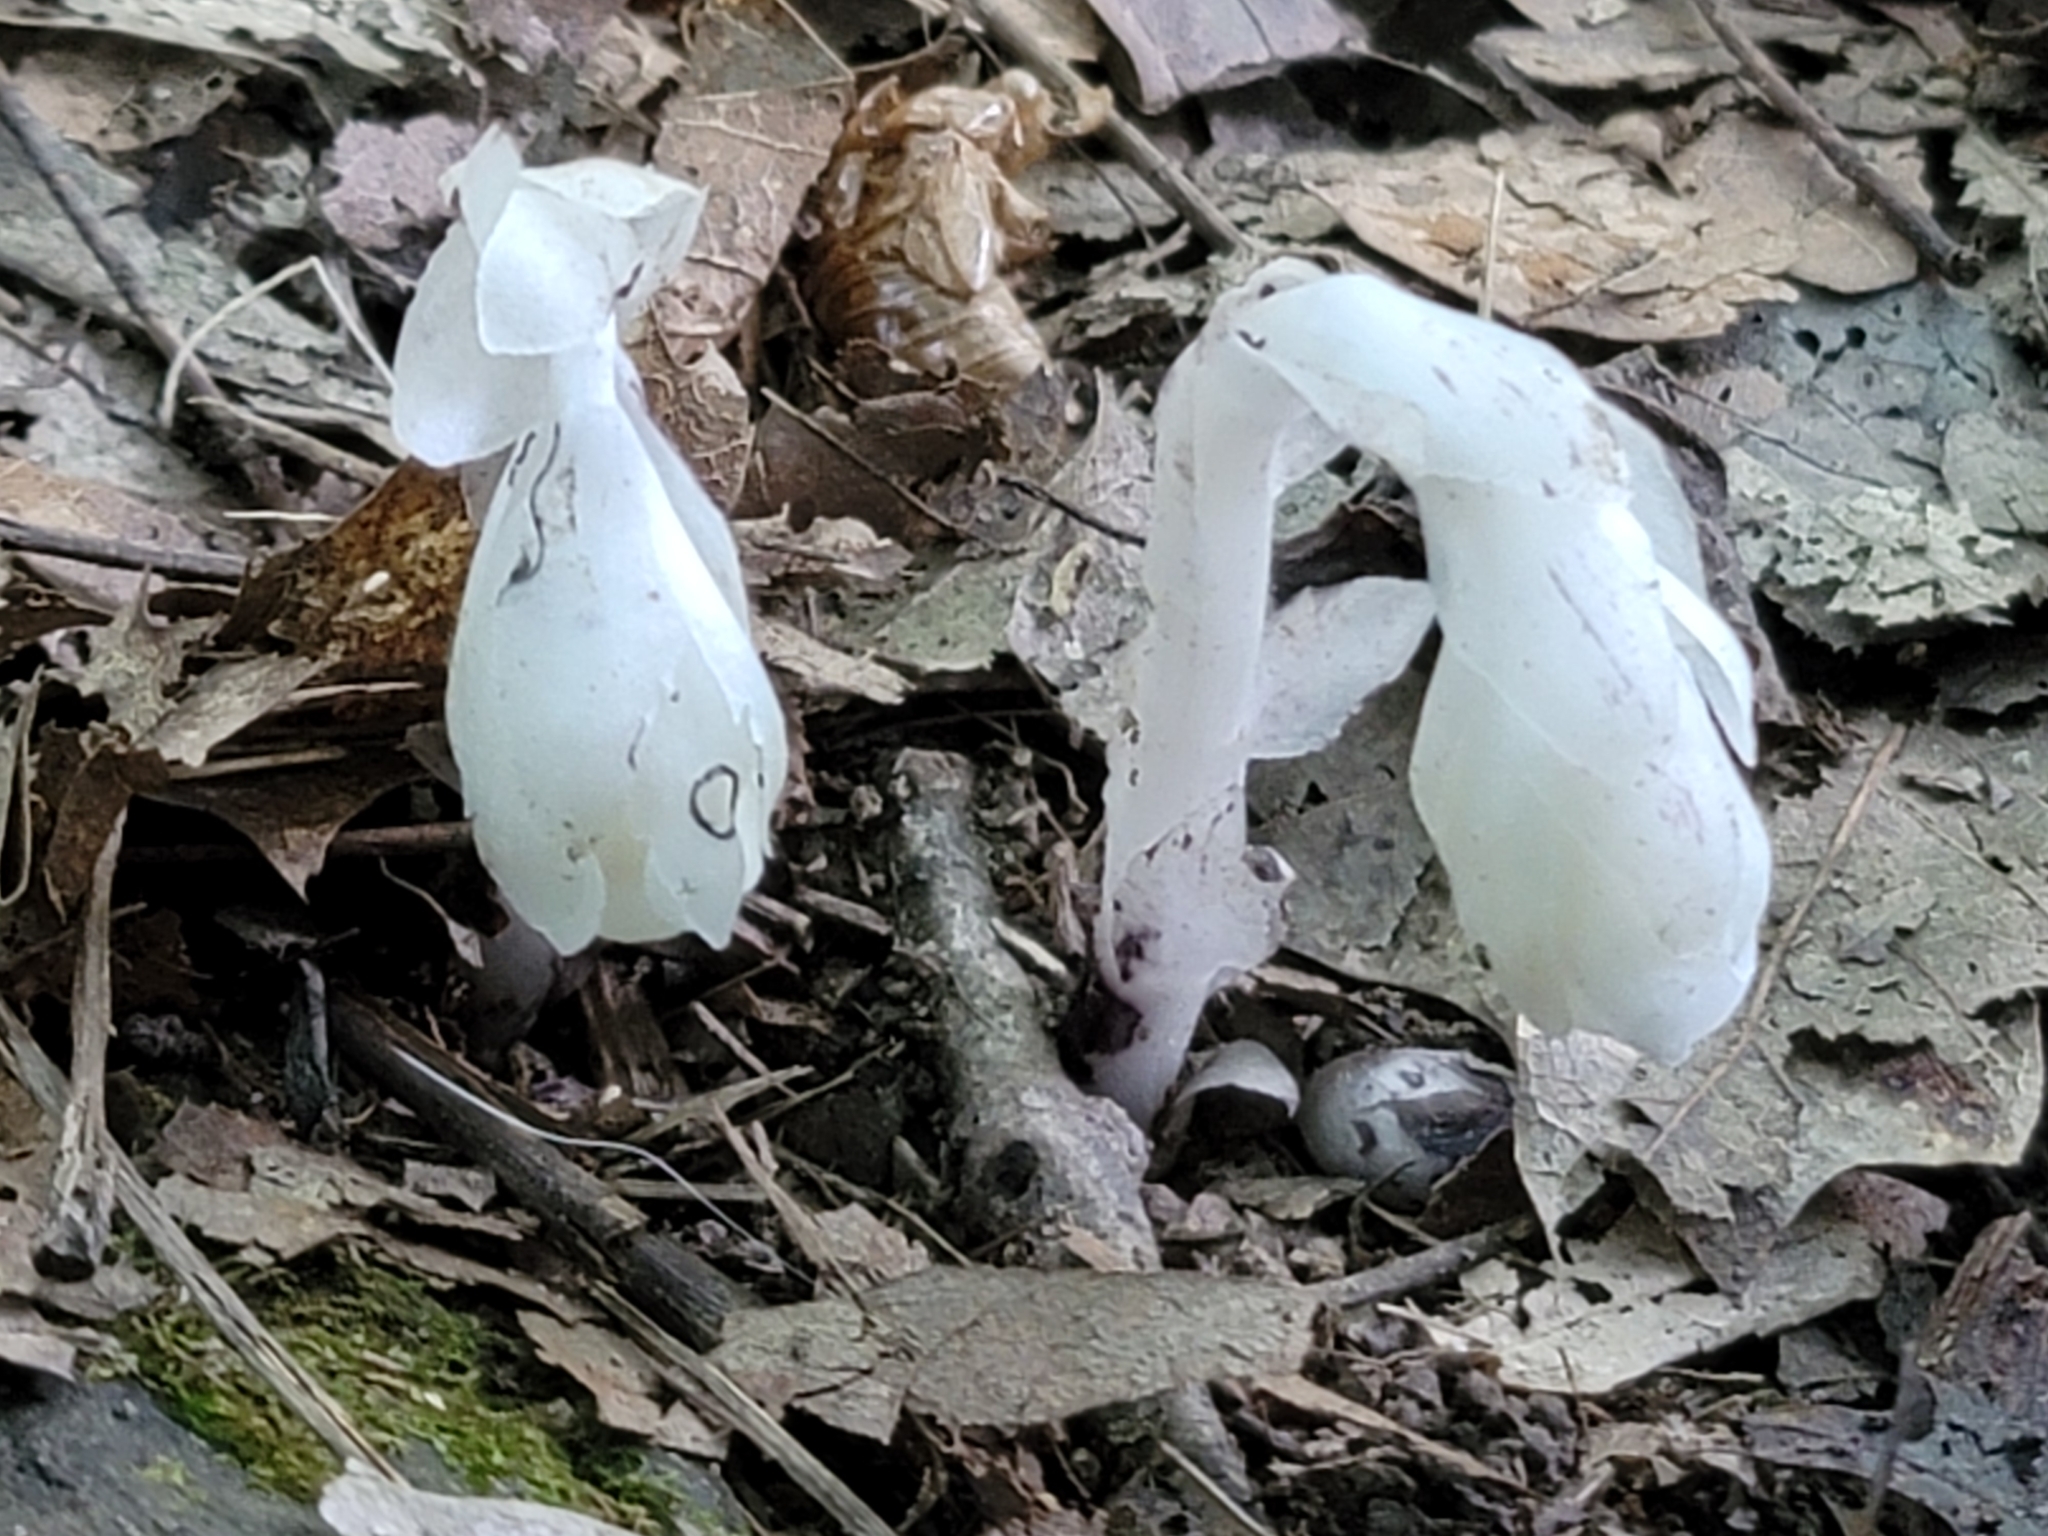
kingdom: Plantae
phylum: Tracheophyta
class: Magnoliopsida
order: Ericales
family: Ericaceae
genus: Monotropa
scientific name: Monotropa uniflora
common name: Convulsion root
